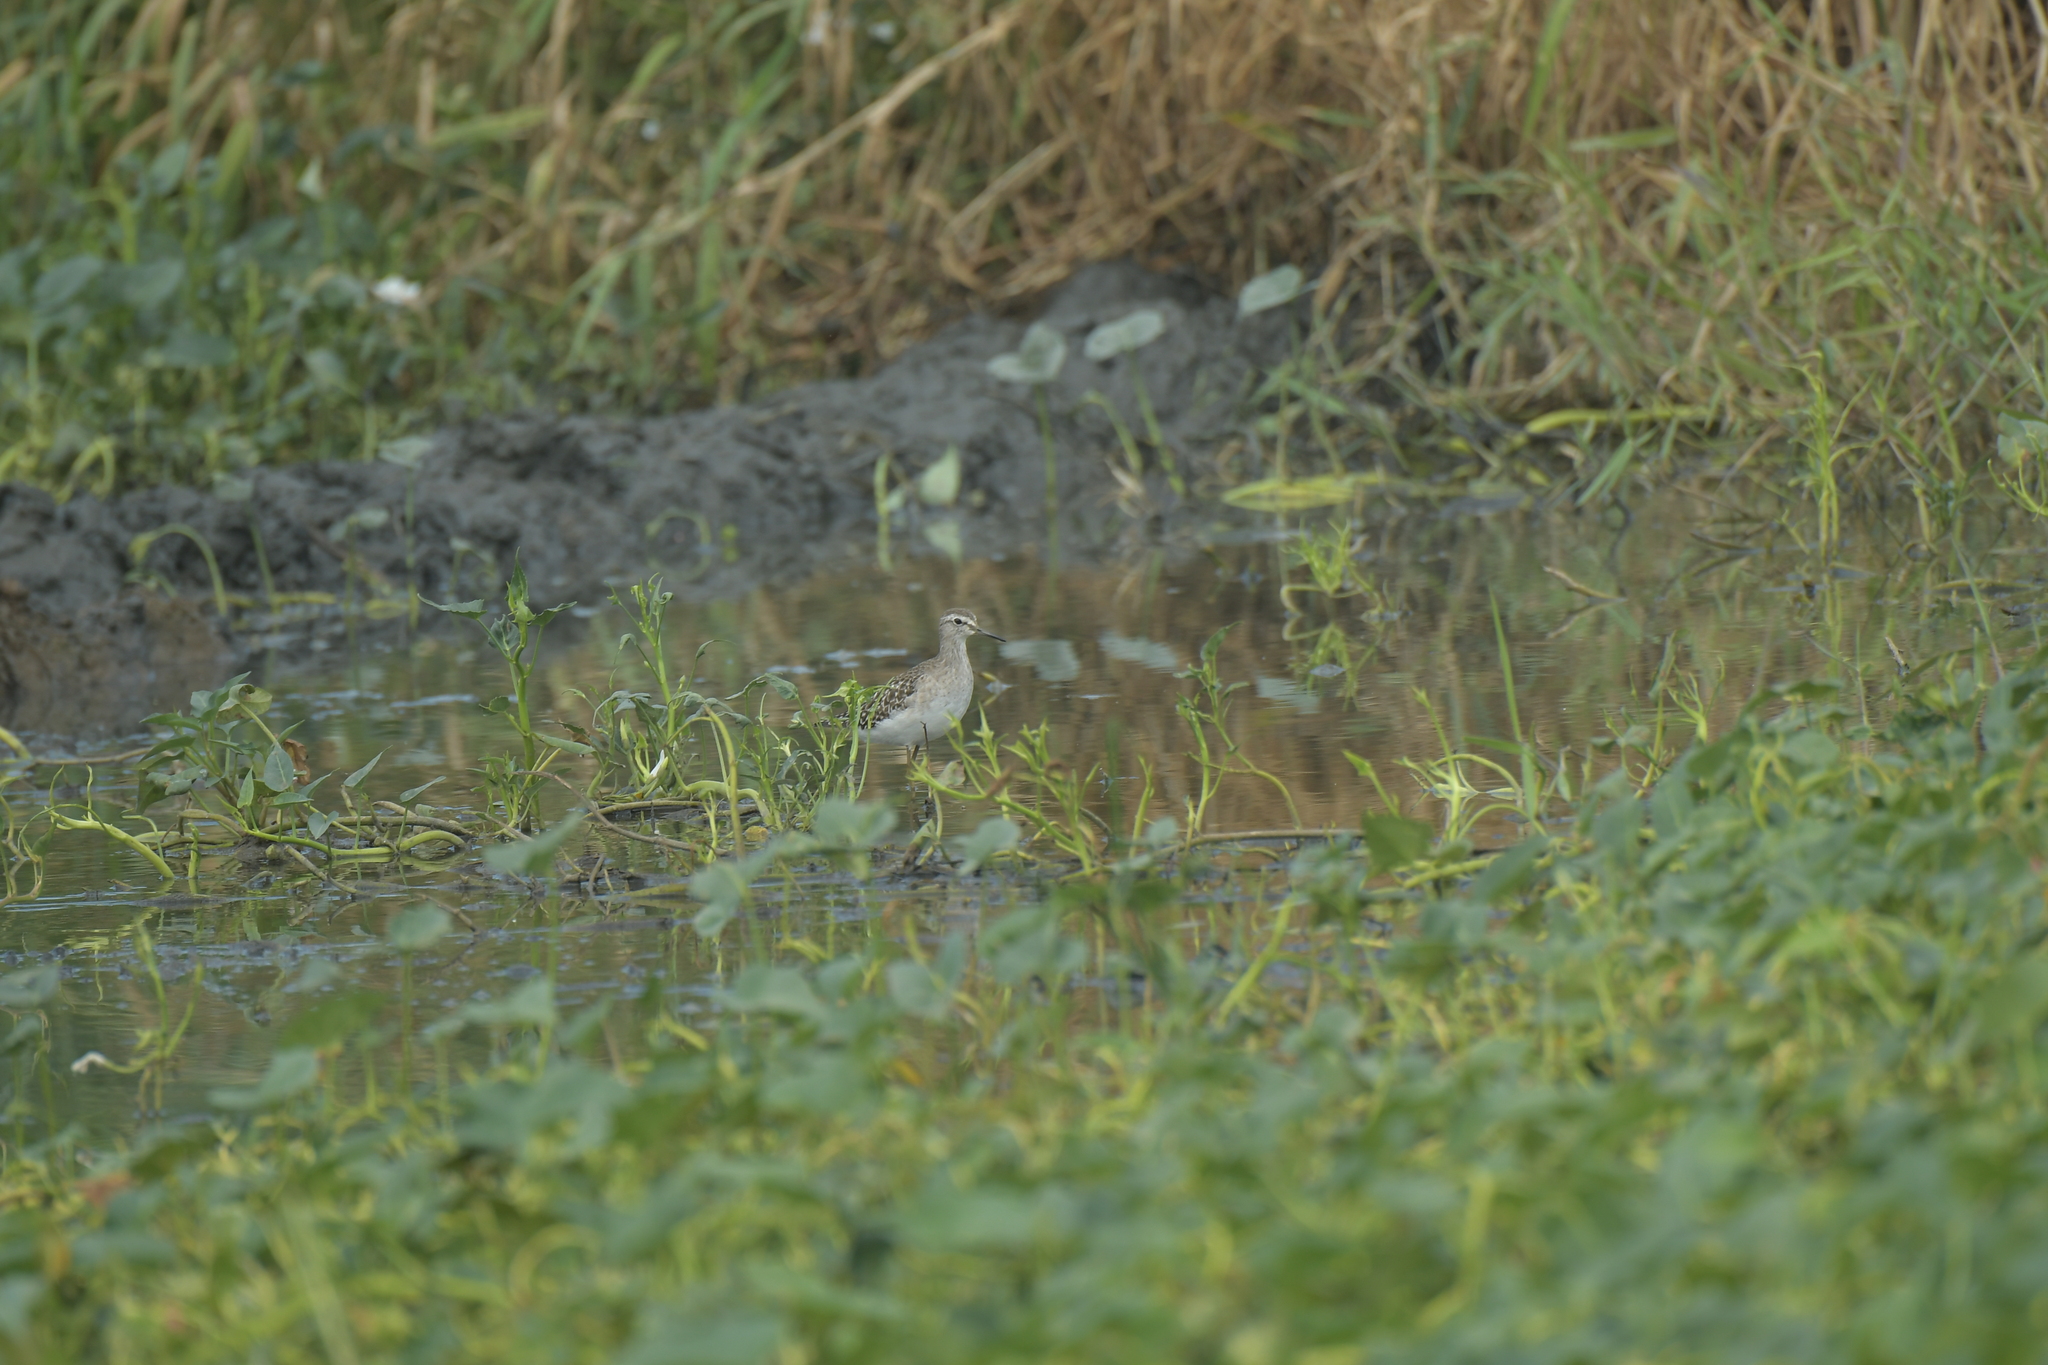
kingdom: Animalia
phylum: Chordata
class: Aves
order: Charadriiformes
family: Scolopacidae
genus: Tringa
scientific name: Tringa glareola
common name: Wood sandpiper
